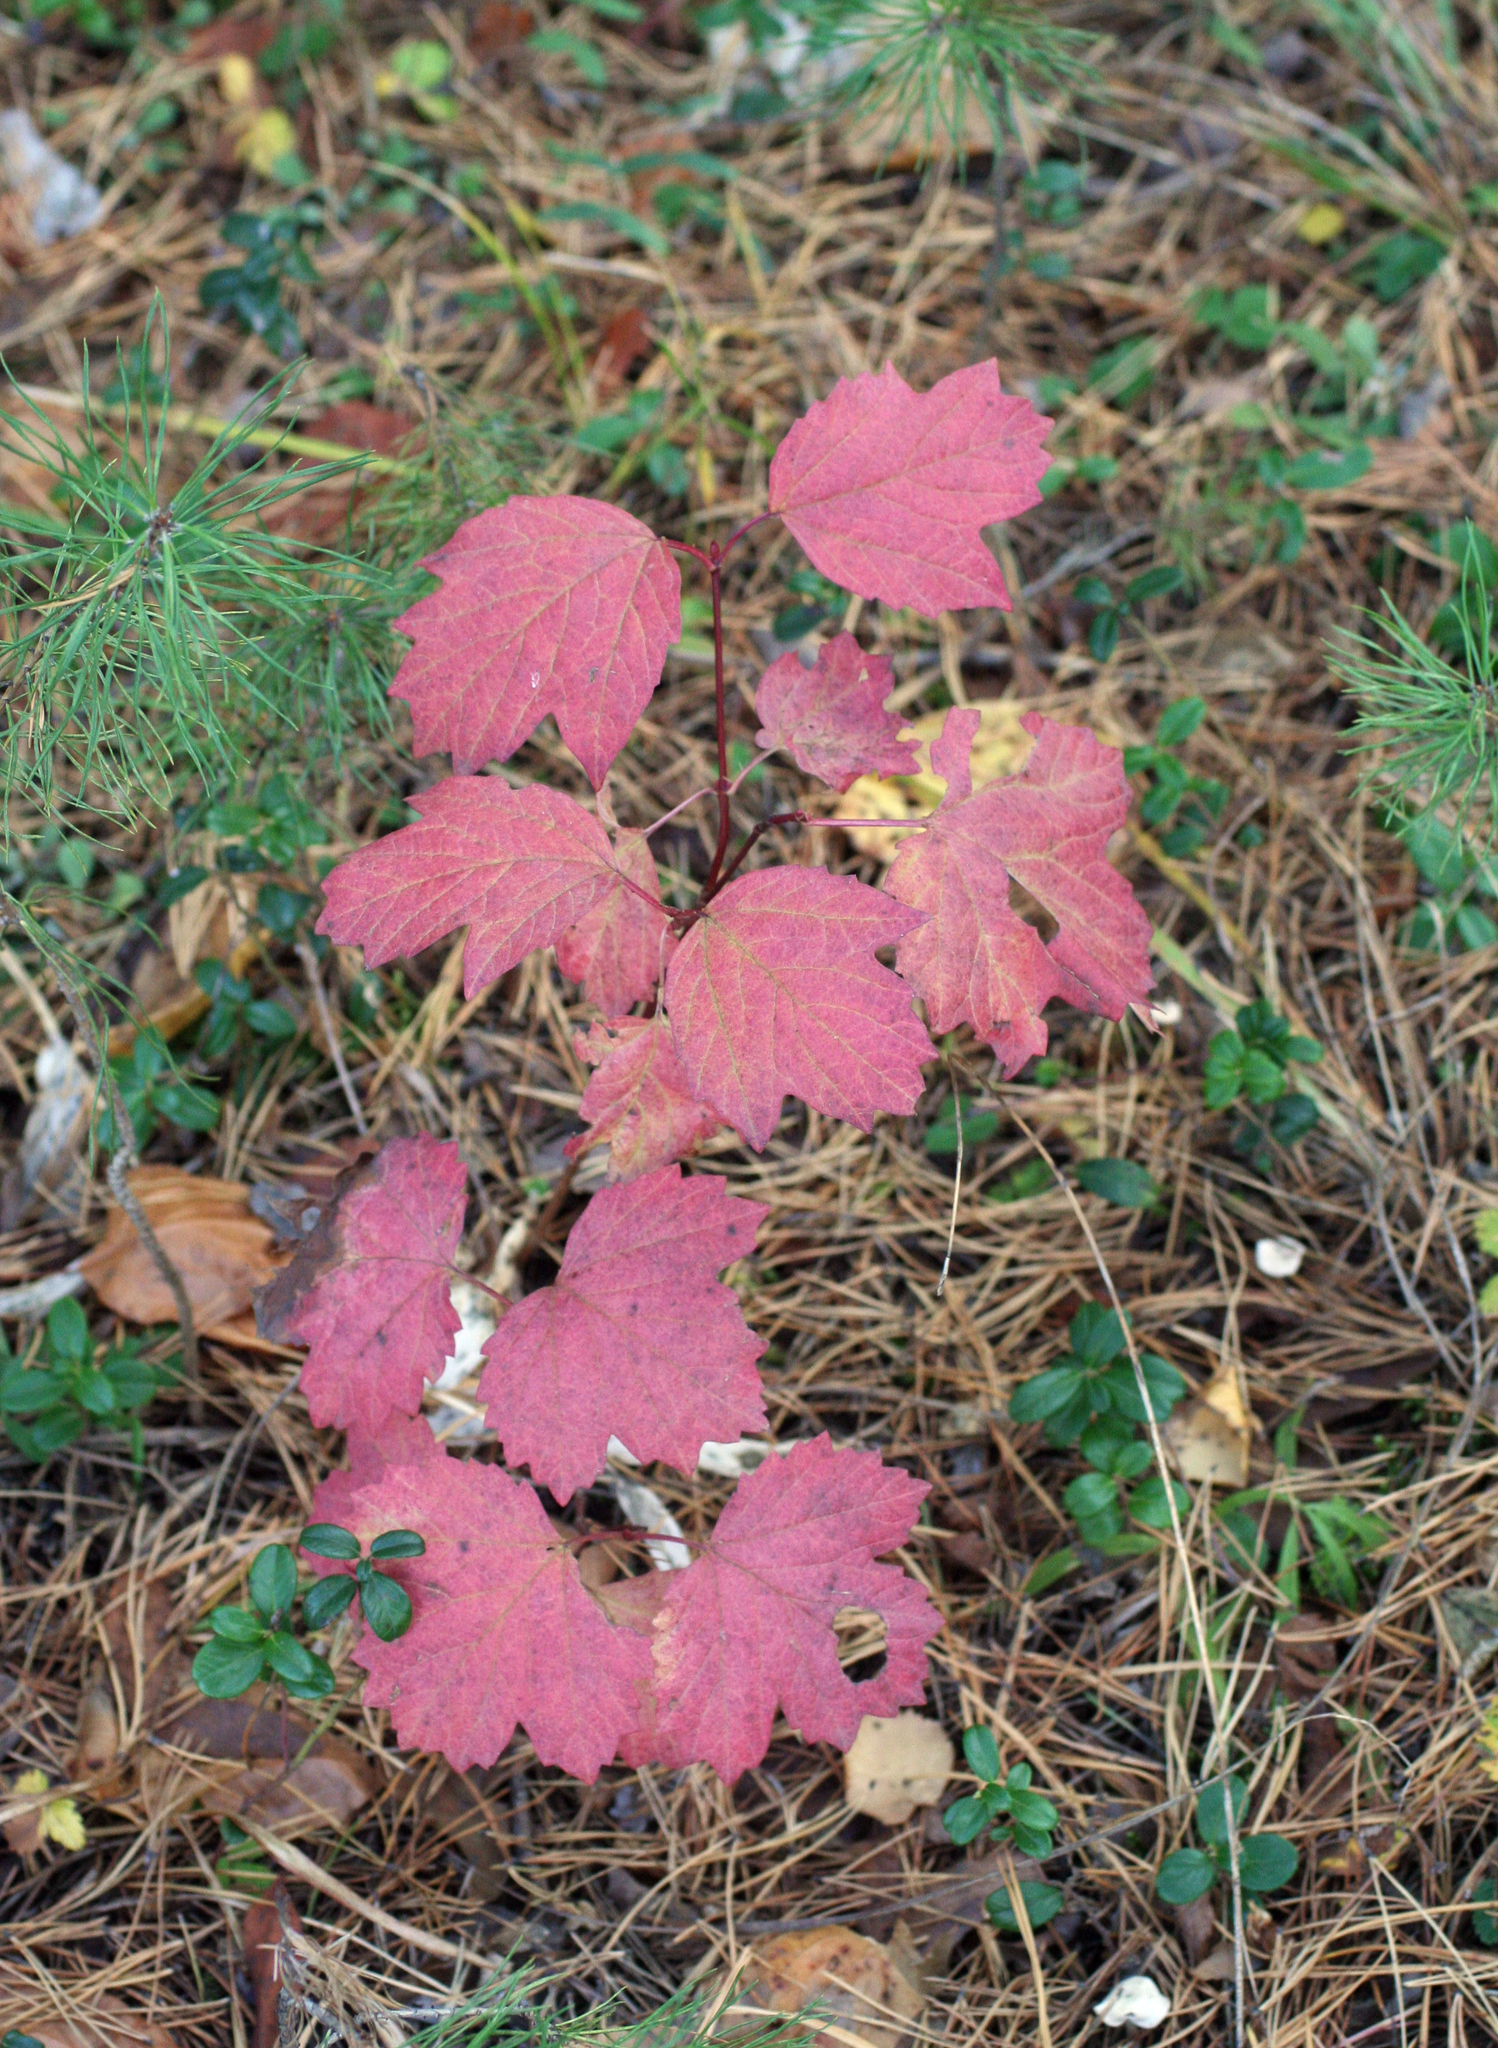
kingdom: Plantae
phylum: Tracheophyta
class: Magnoliopsida
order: Dipsacales
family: Viburnaceae
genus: Viburnum
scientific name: Viburnum opulus
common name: Guelder-rose
